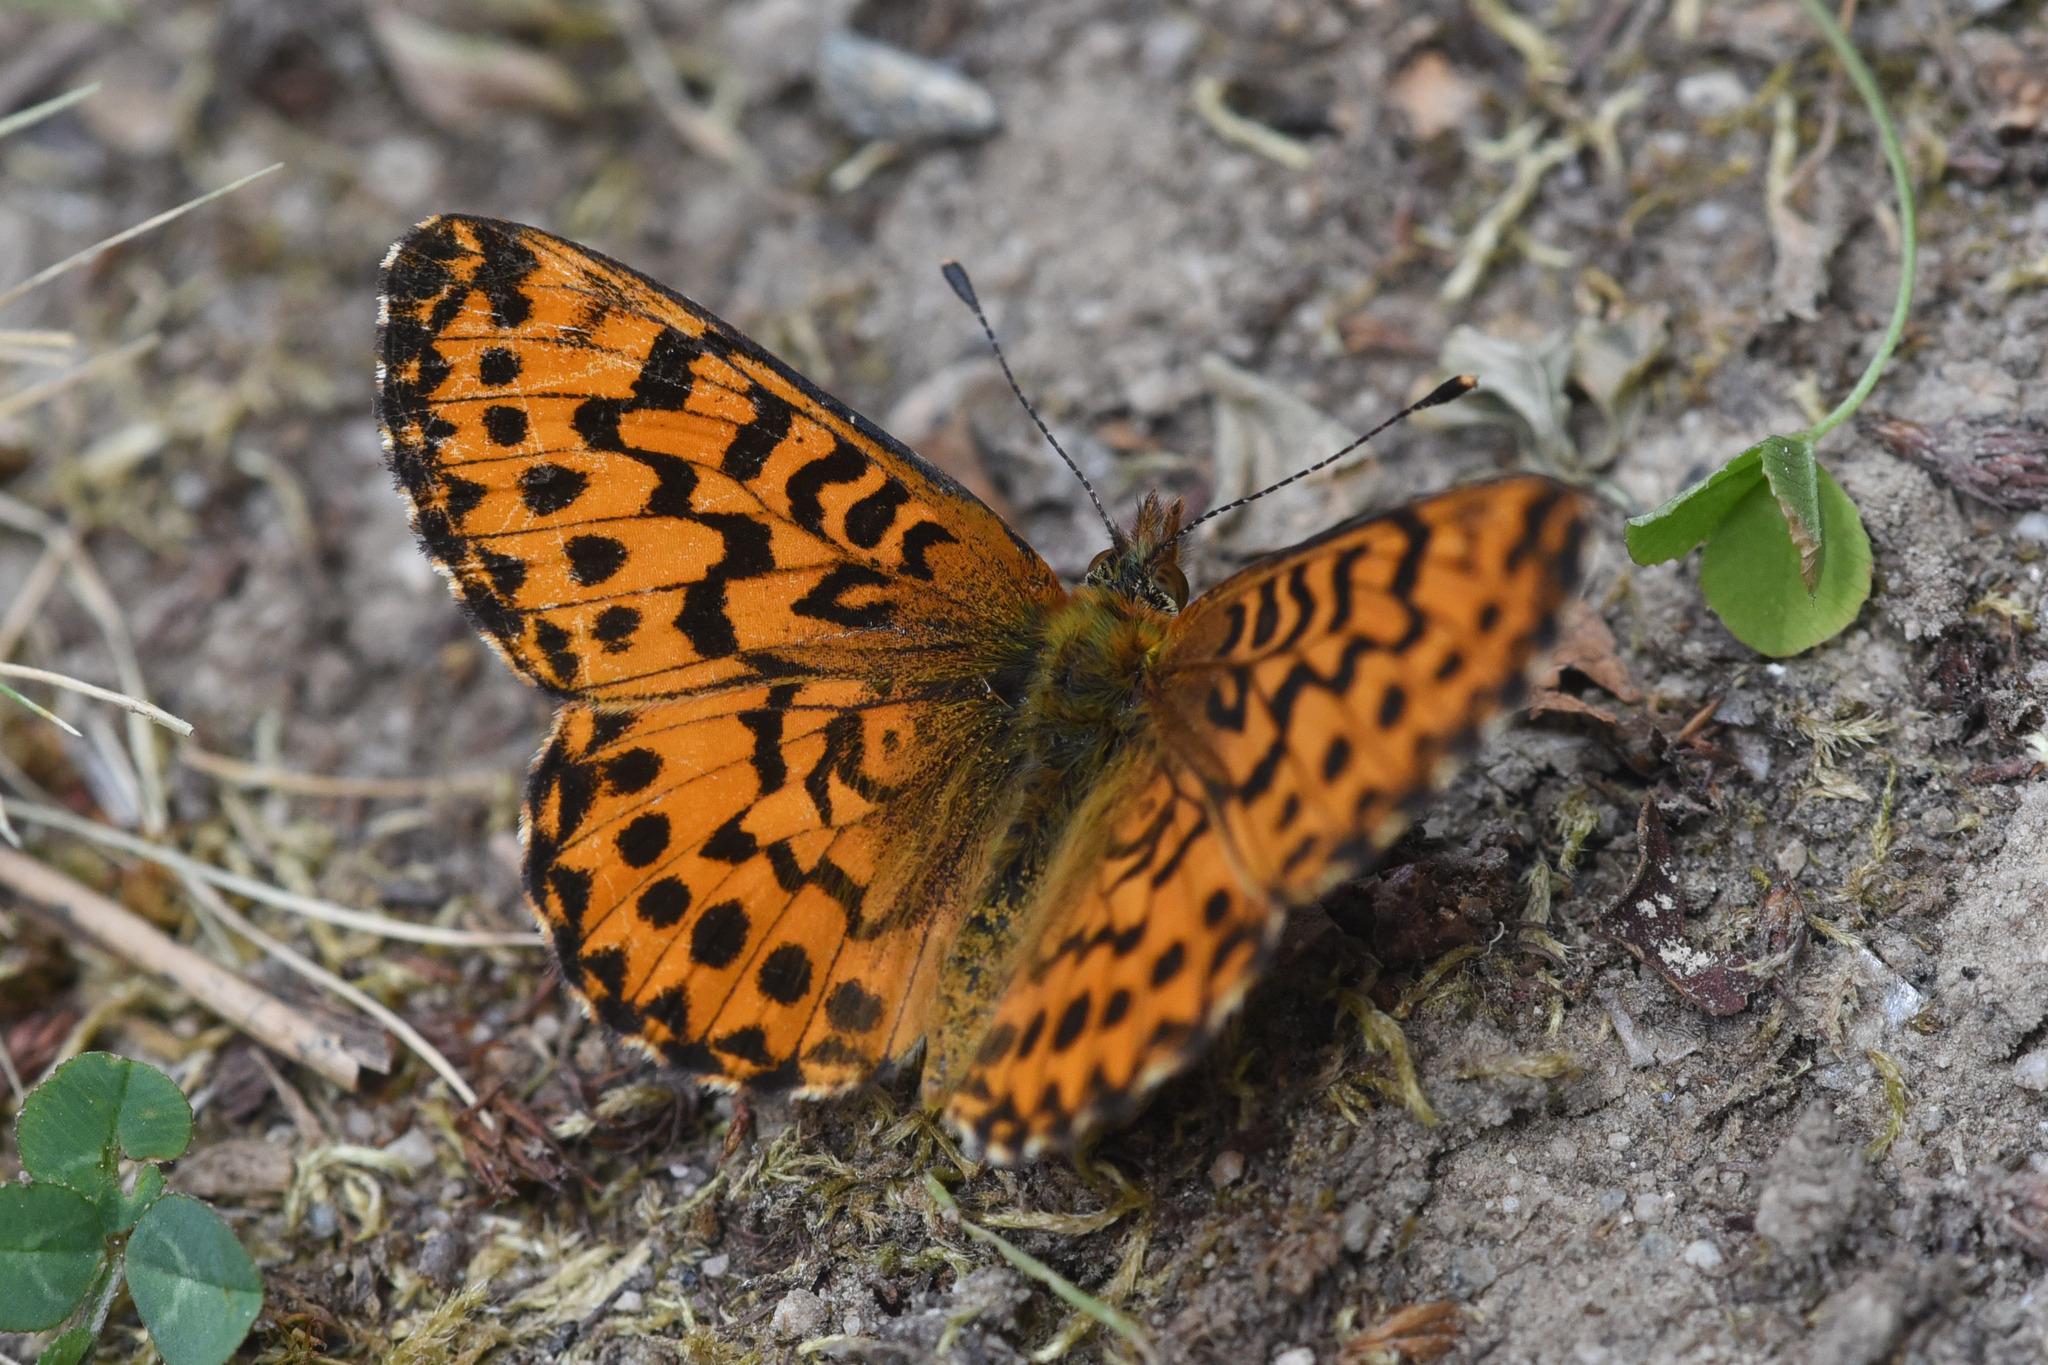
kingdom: Animalia
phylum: Arthropoda
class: Insecta
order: Lepidoptera
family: Nymphalidae
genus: Boloria
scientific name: Boloria chariclea
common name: Arctic fritillary
